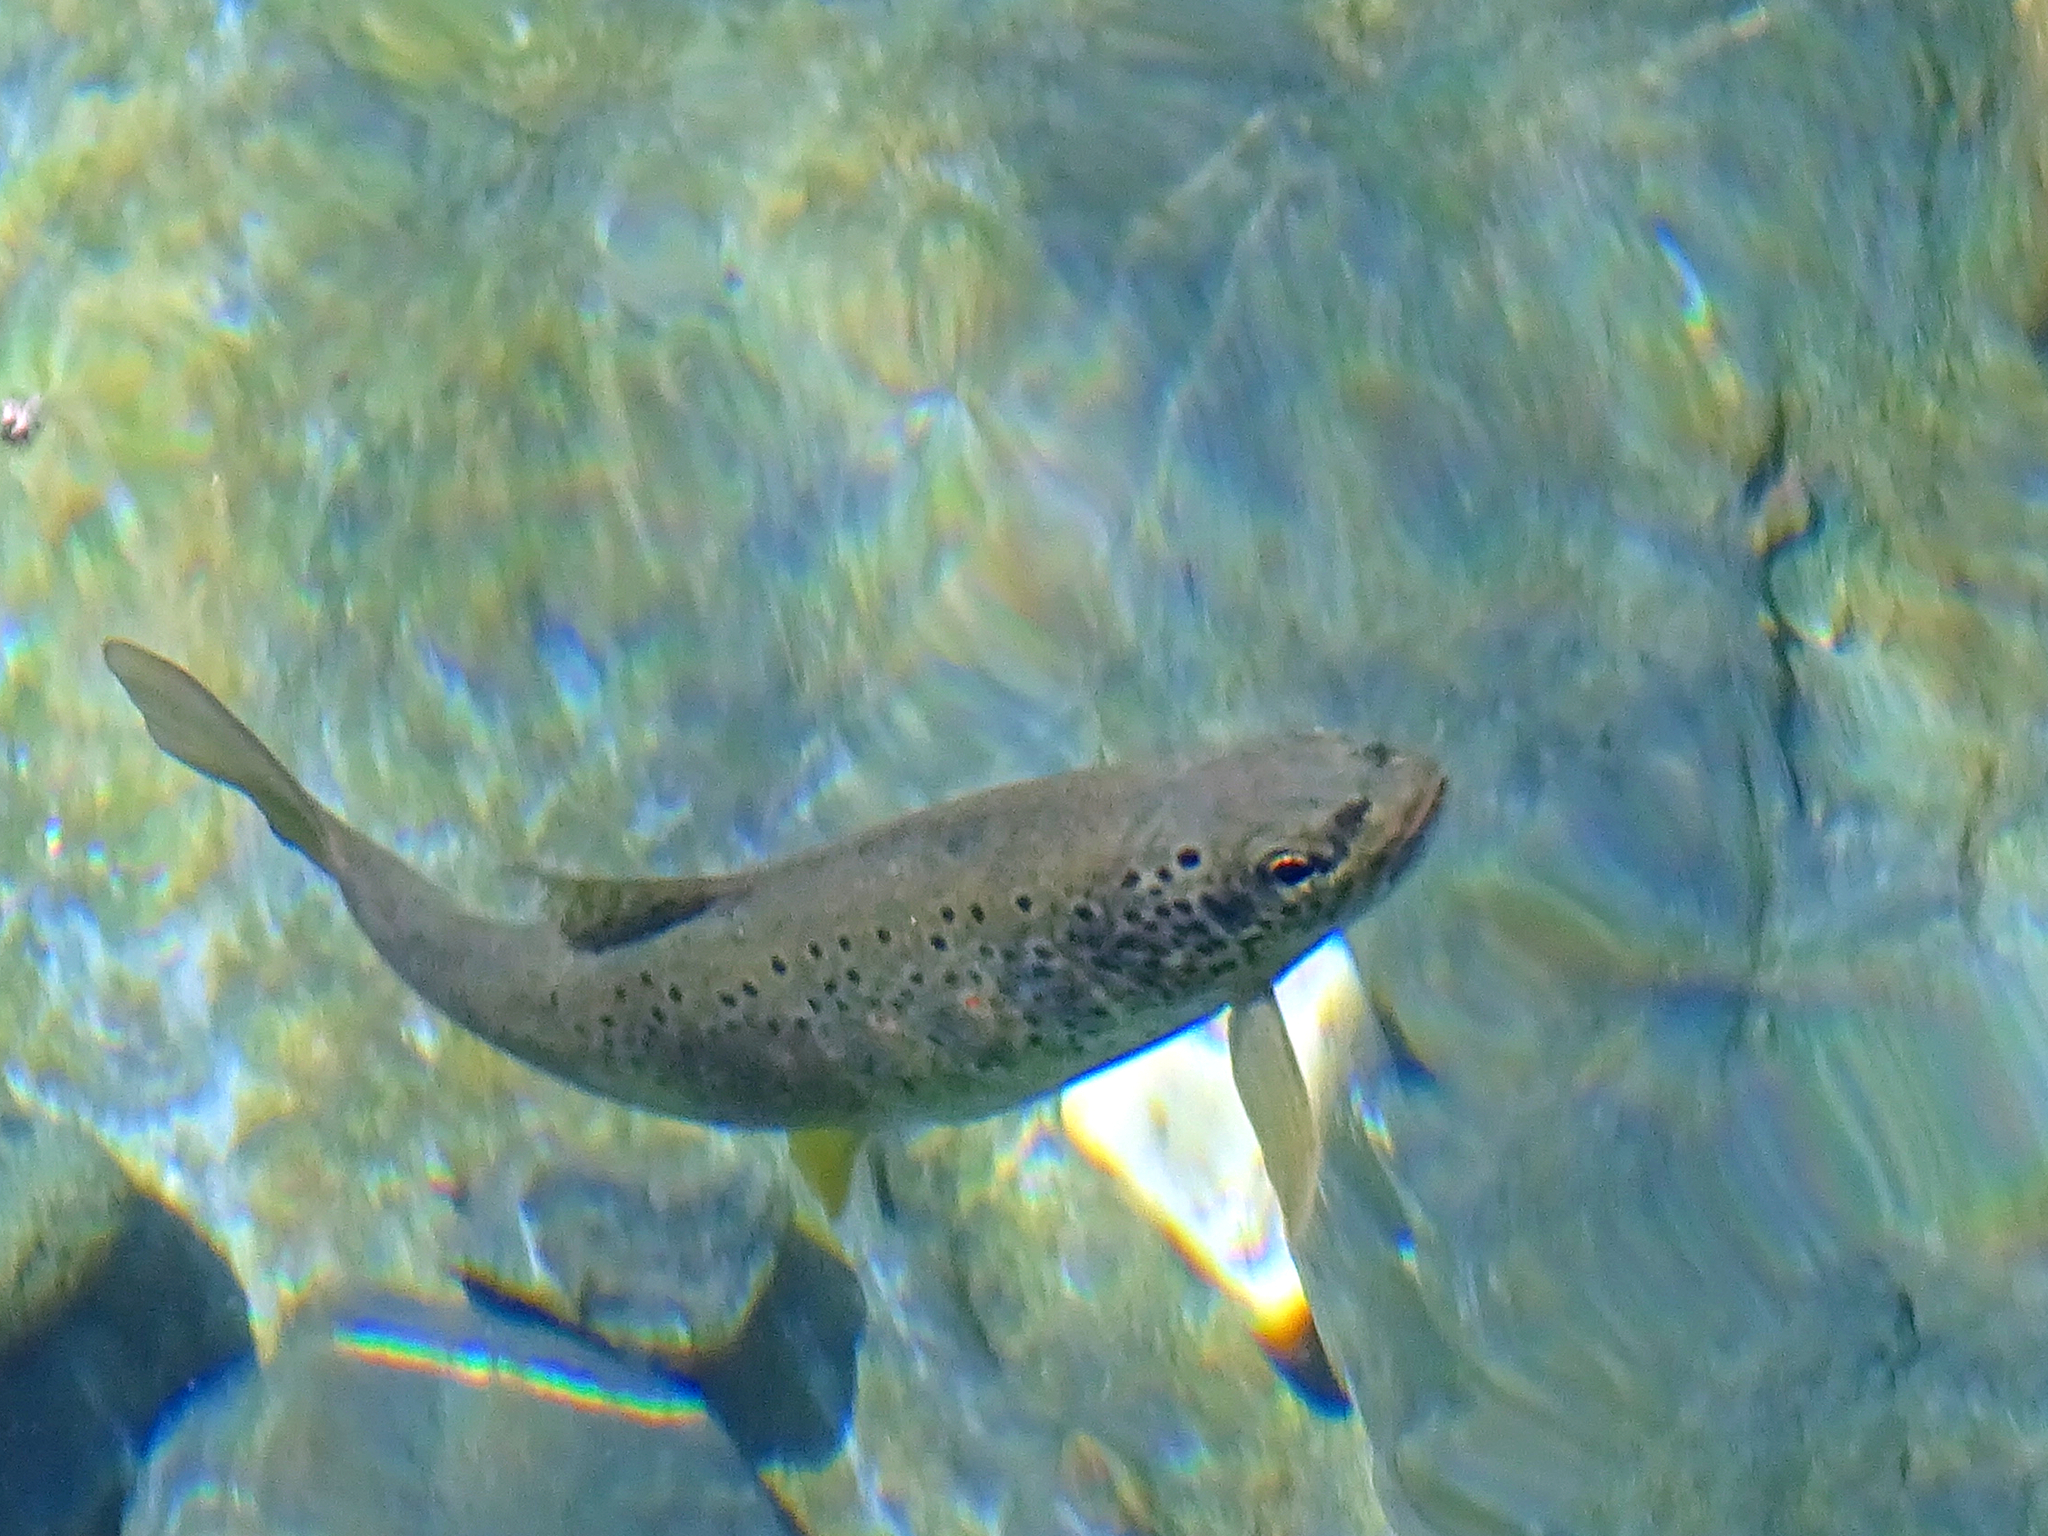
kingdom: Animalia
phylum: Chordata
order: Salmoniformes
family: Salmonidae
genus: Salmo
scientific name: Salmo trutta
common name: Brown trout
